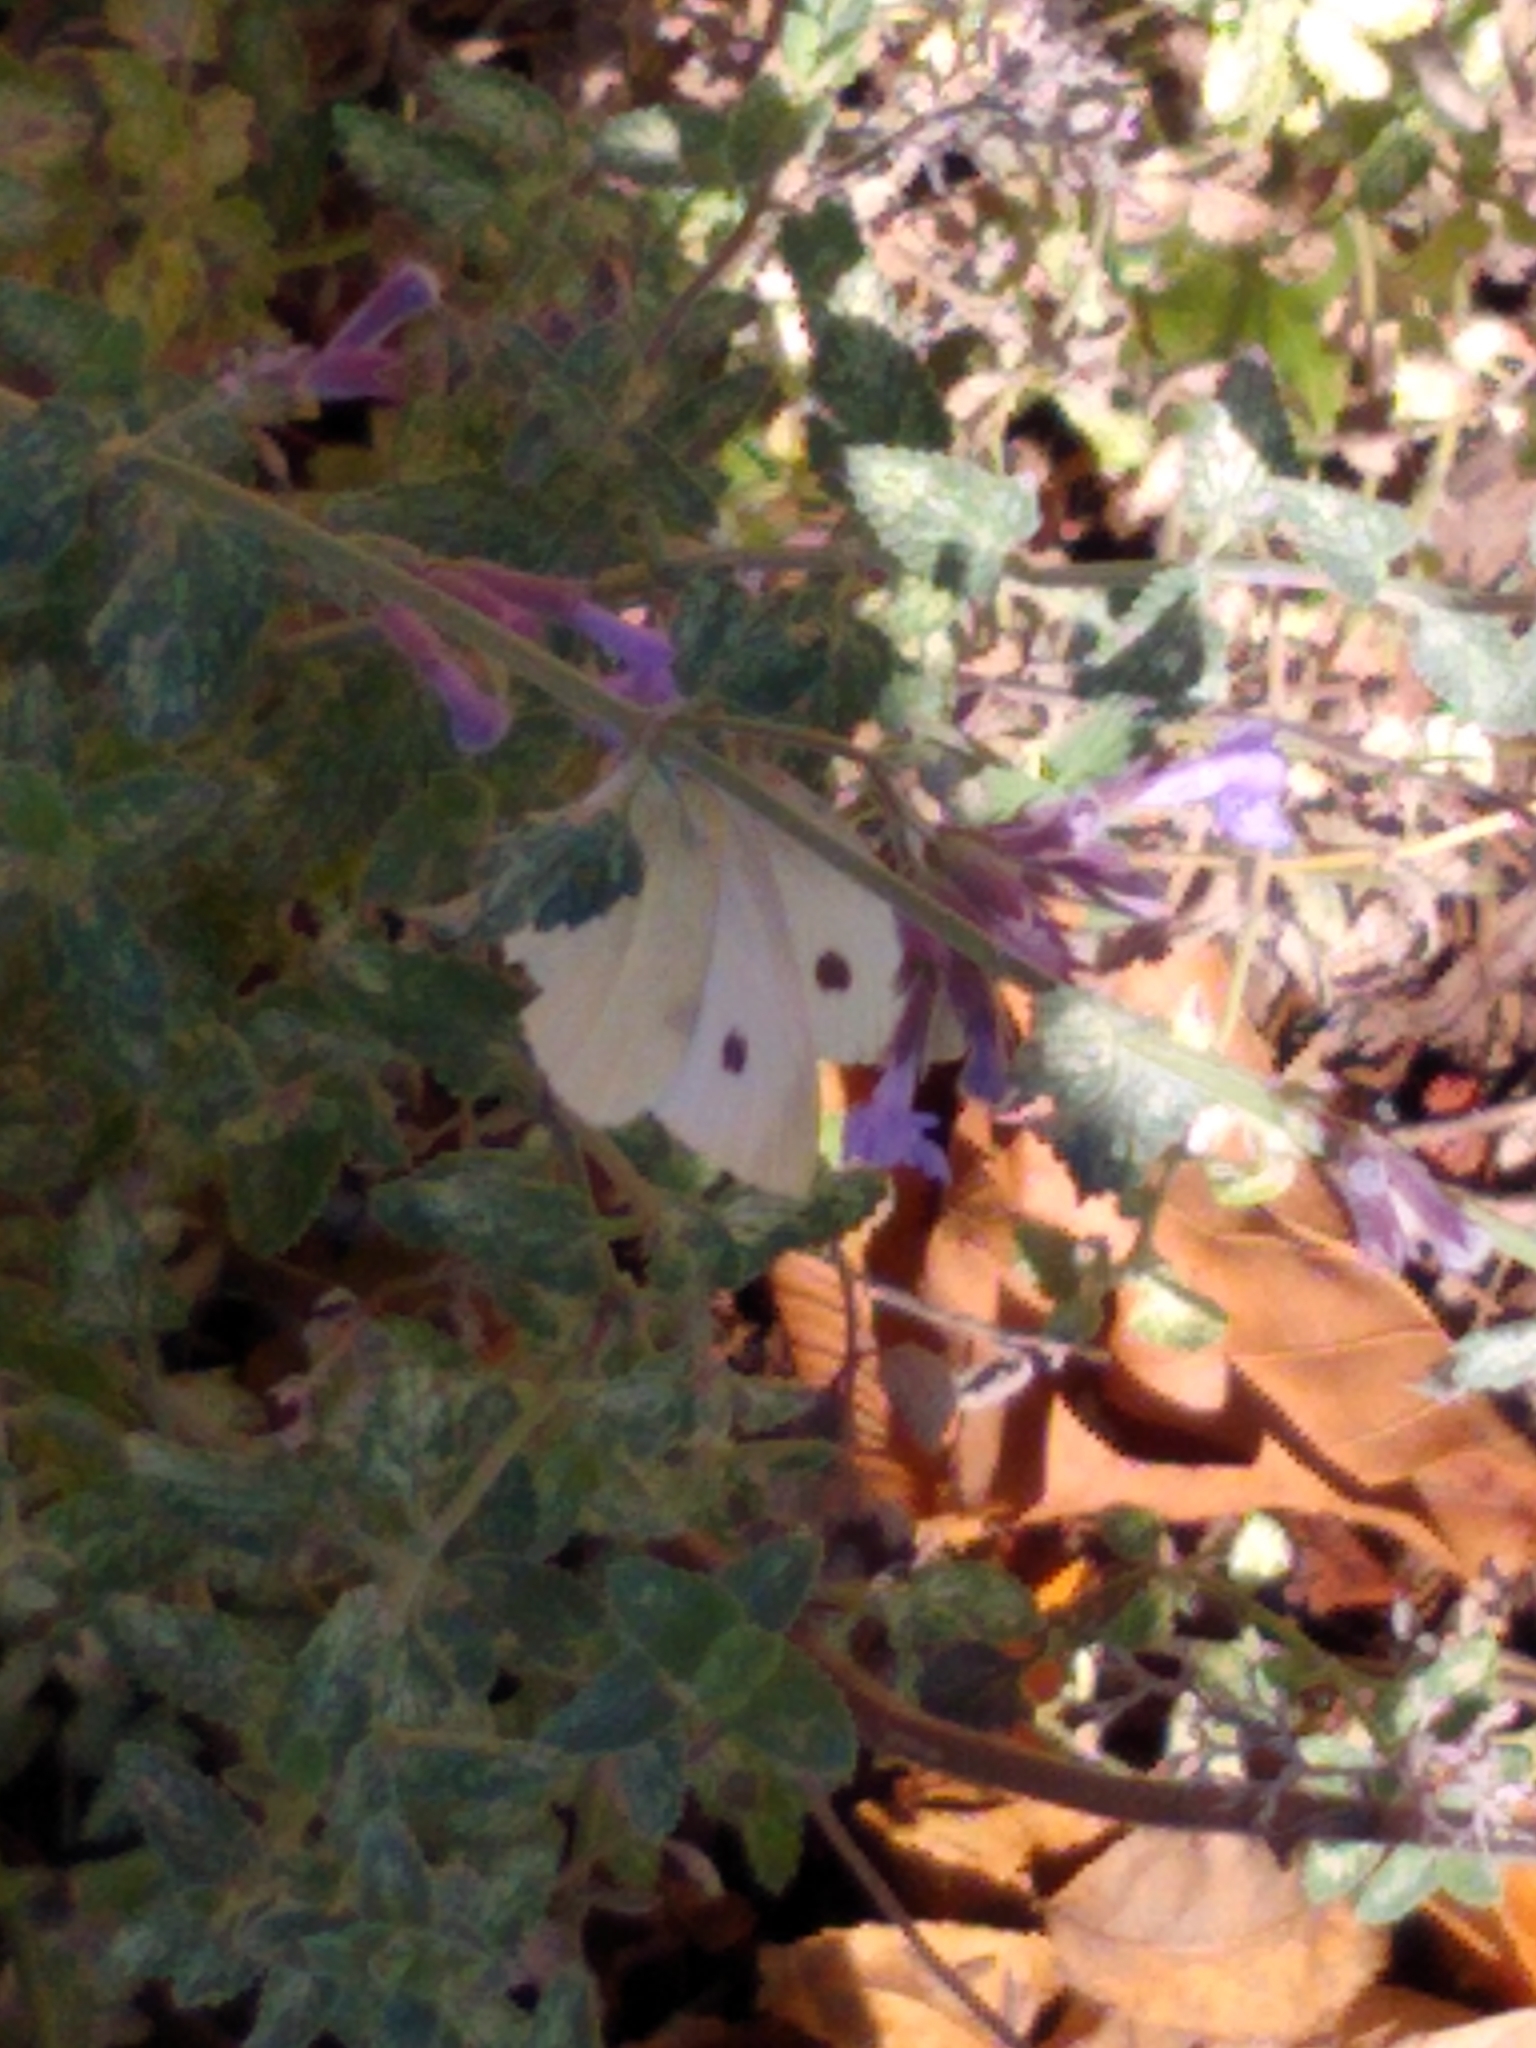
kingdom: Animalia
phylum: Arthropoda
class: Insecta
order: Lepidoptera
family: Pieridae
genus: Pieris
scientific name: Pieris rapae
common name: Small white
